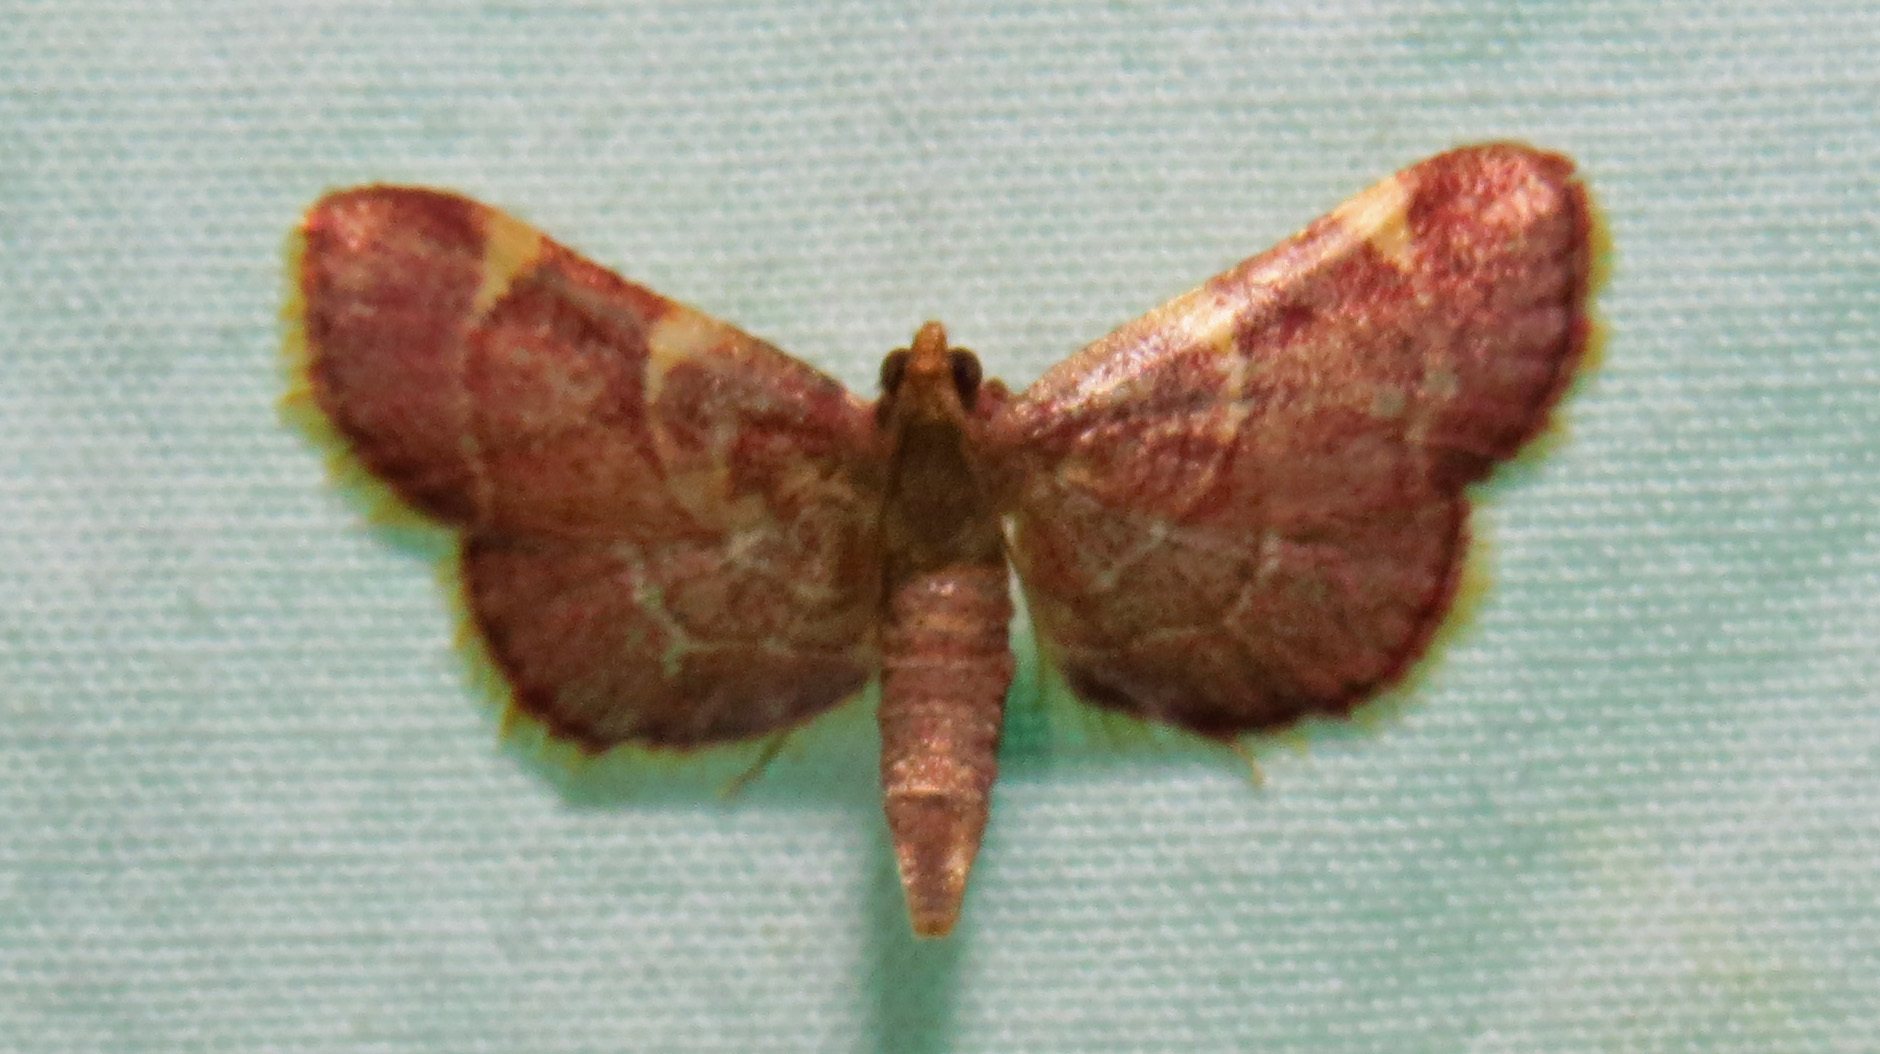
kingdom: Animalia
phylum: Arthropoda
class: Insecta
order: Lepidoptera
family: Pyralidae
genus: Hypsopygia
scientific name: Hypsopygia olinalis
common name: Yellow-fringed dolichomia moth
